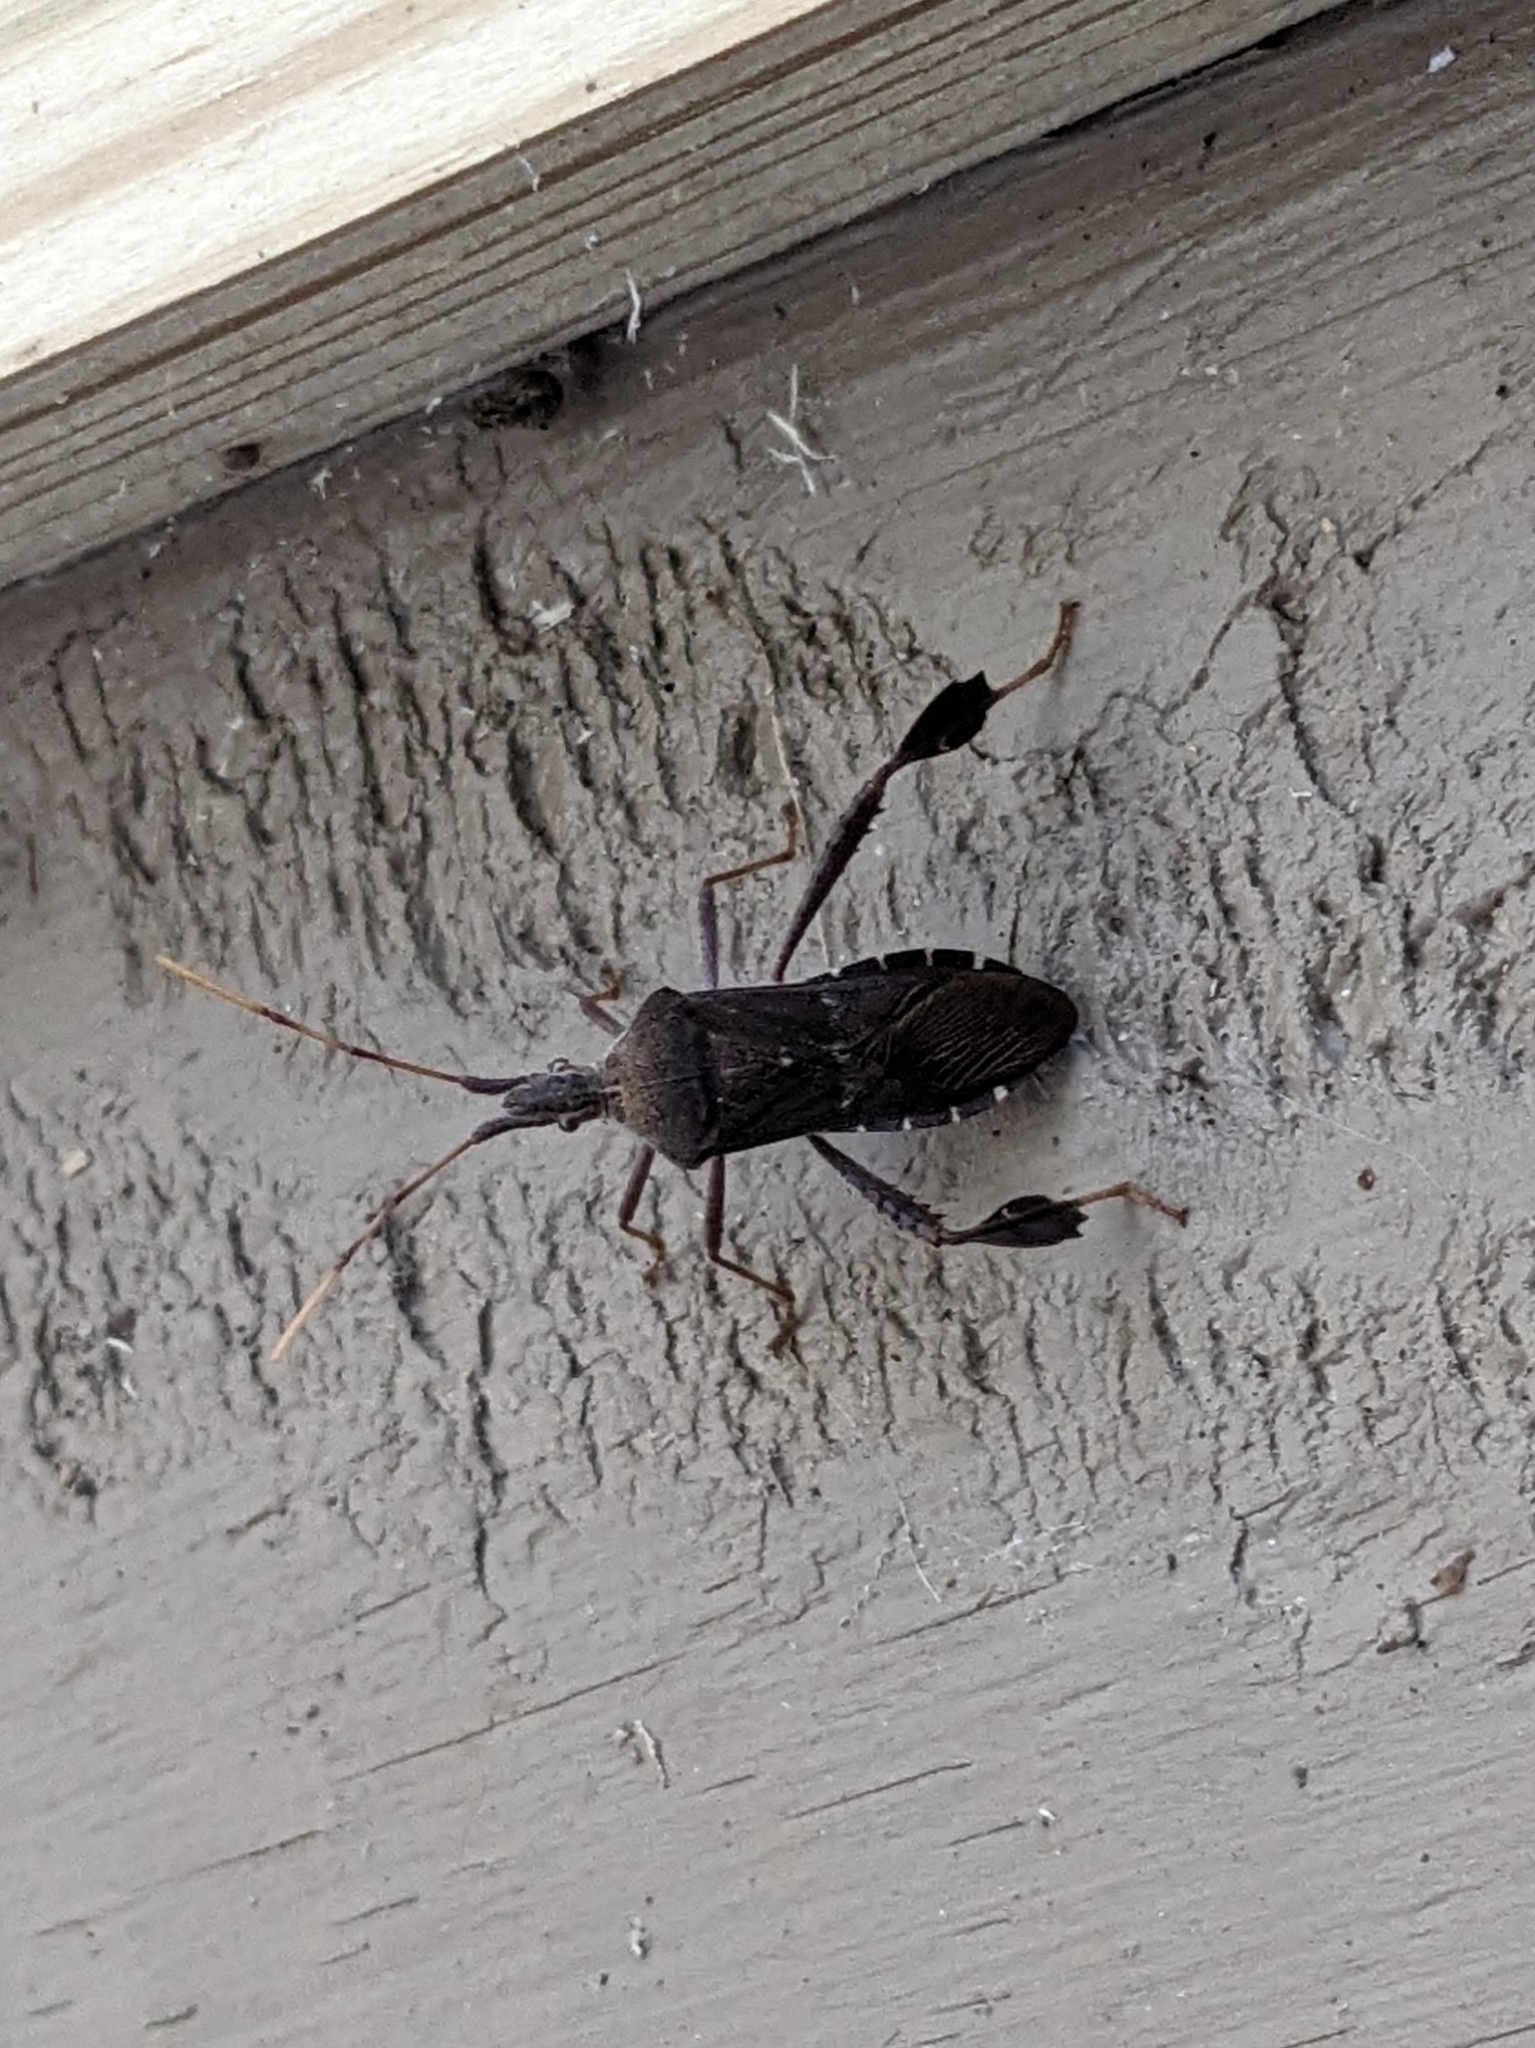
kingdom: Animalia
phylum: Arthropoda
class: Insecta
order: Hemiptera
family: Coreidae
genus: Leptoglossus
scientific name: Leptoglossus oppositus
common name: Northern leaf-footed bug
